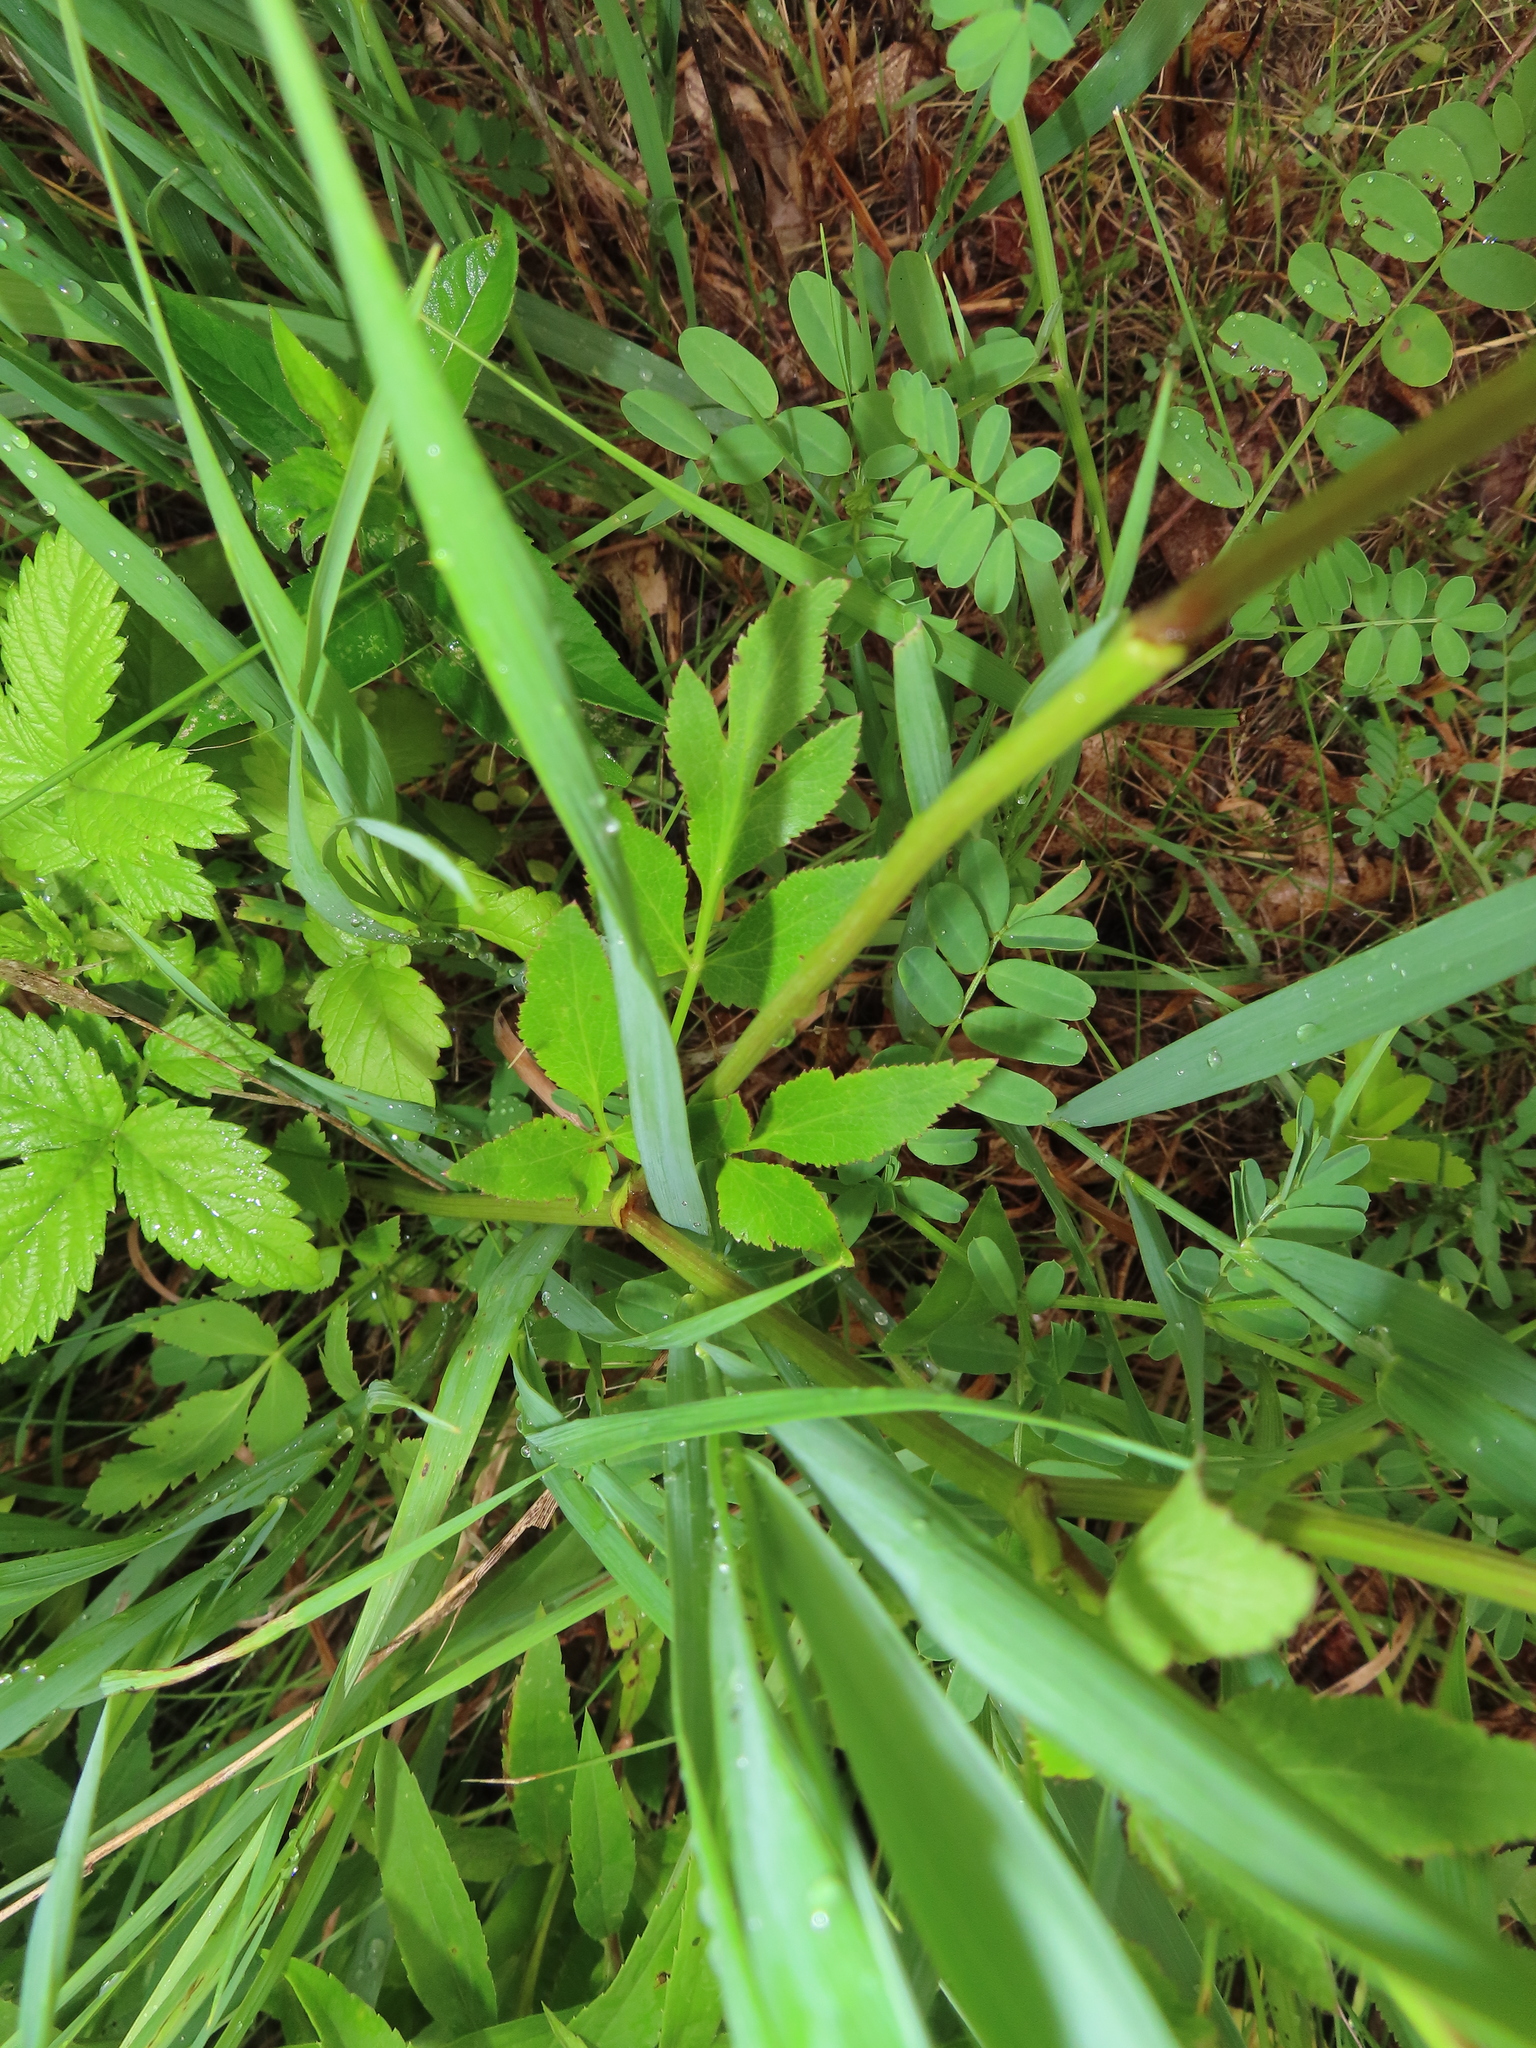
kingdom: Plantae
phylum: Tracheophyta
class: Magnoliopsida
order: Apiales
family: Apiaceae
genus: Zizia
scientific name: Zizia aurea
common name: Golden alexanders
